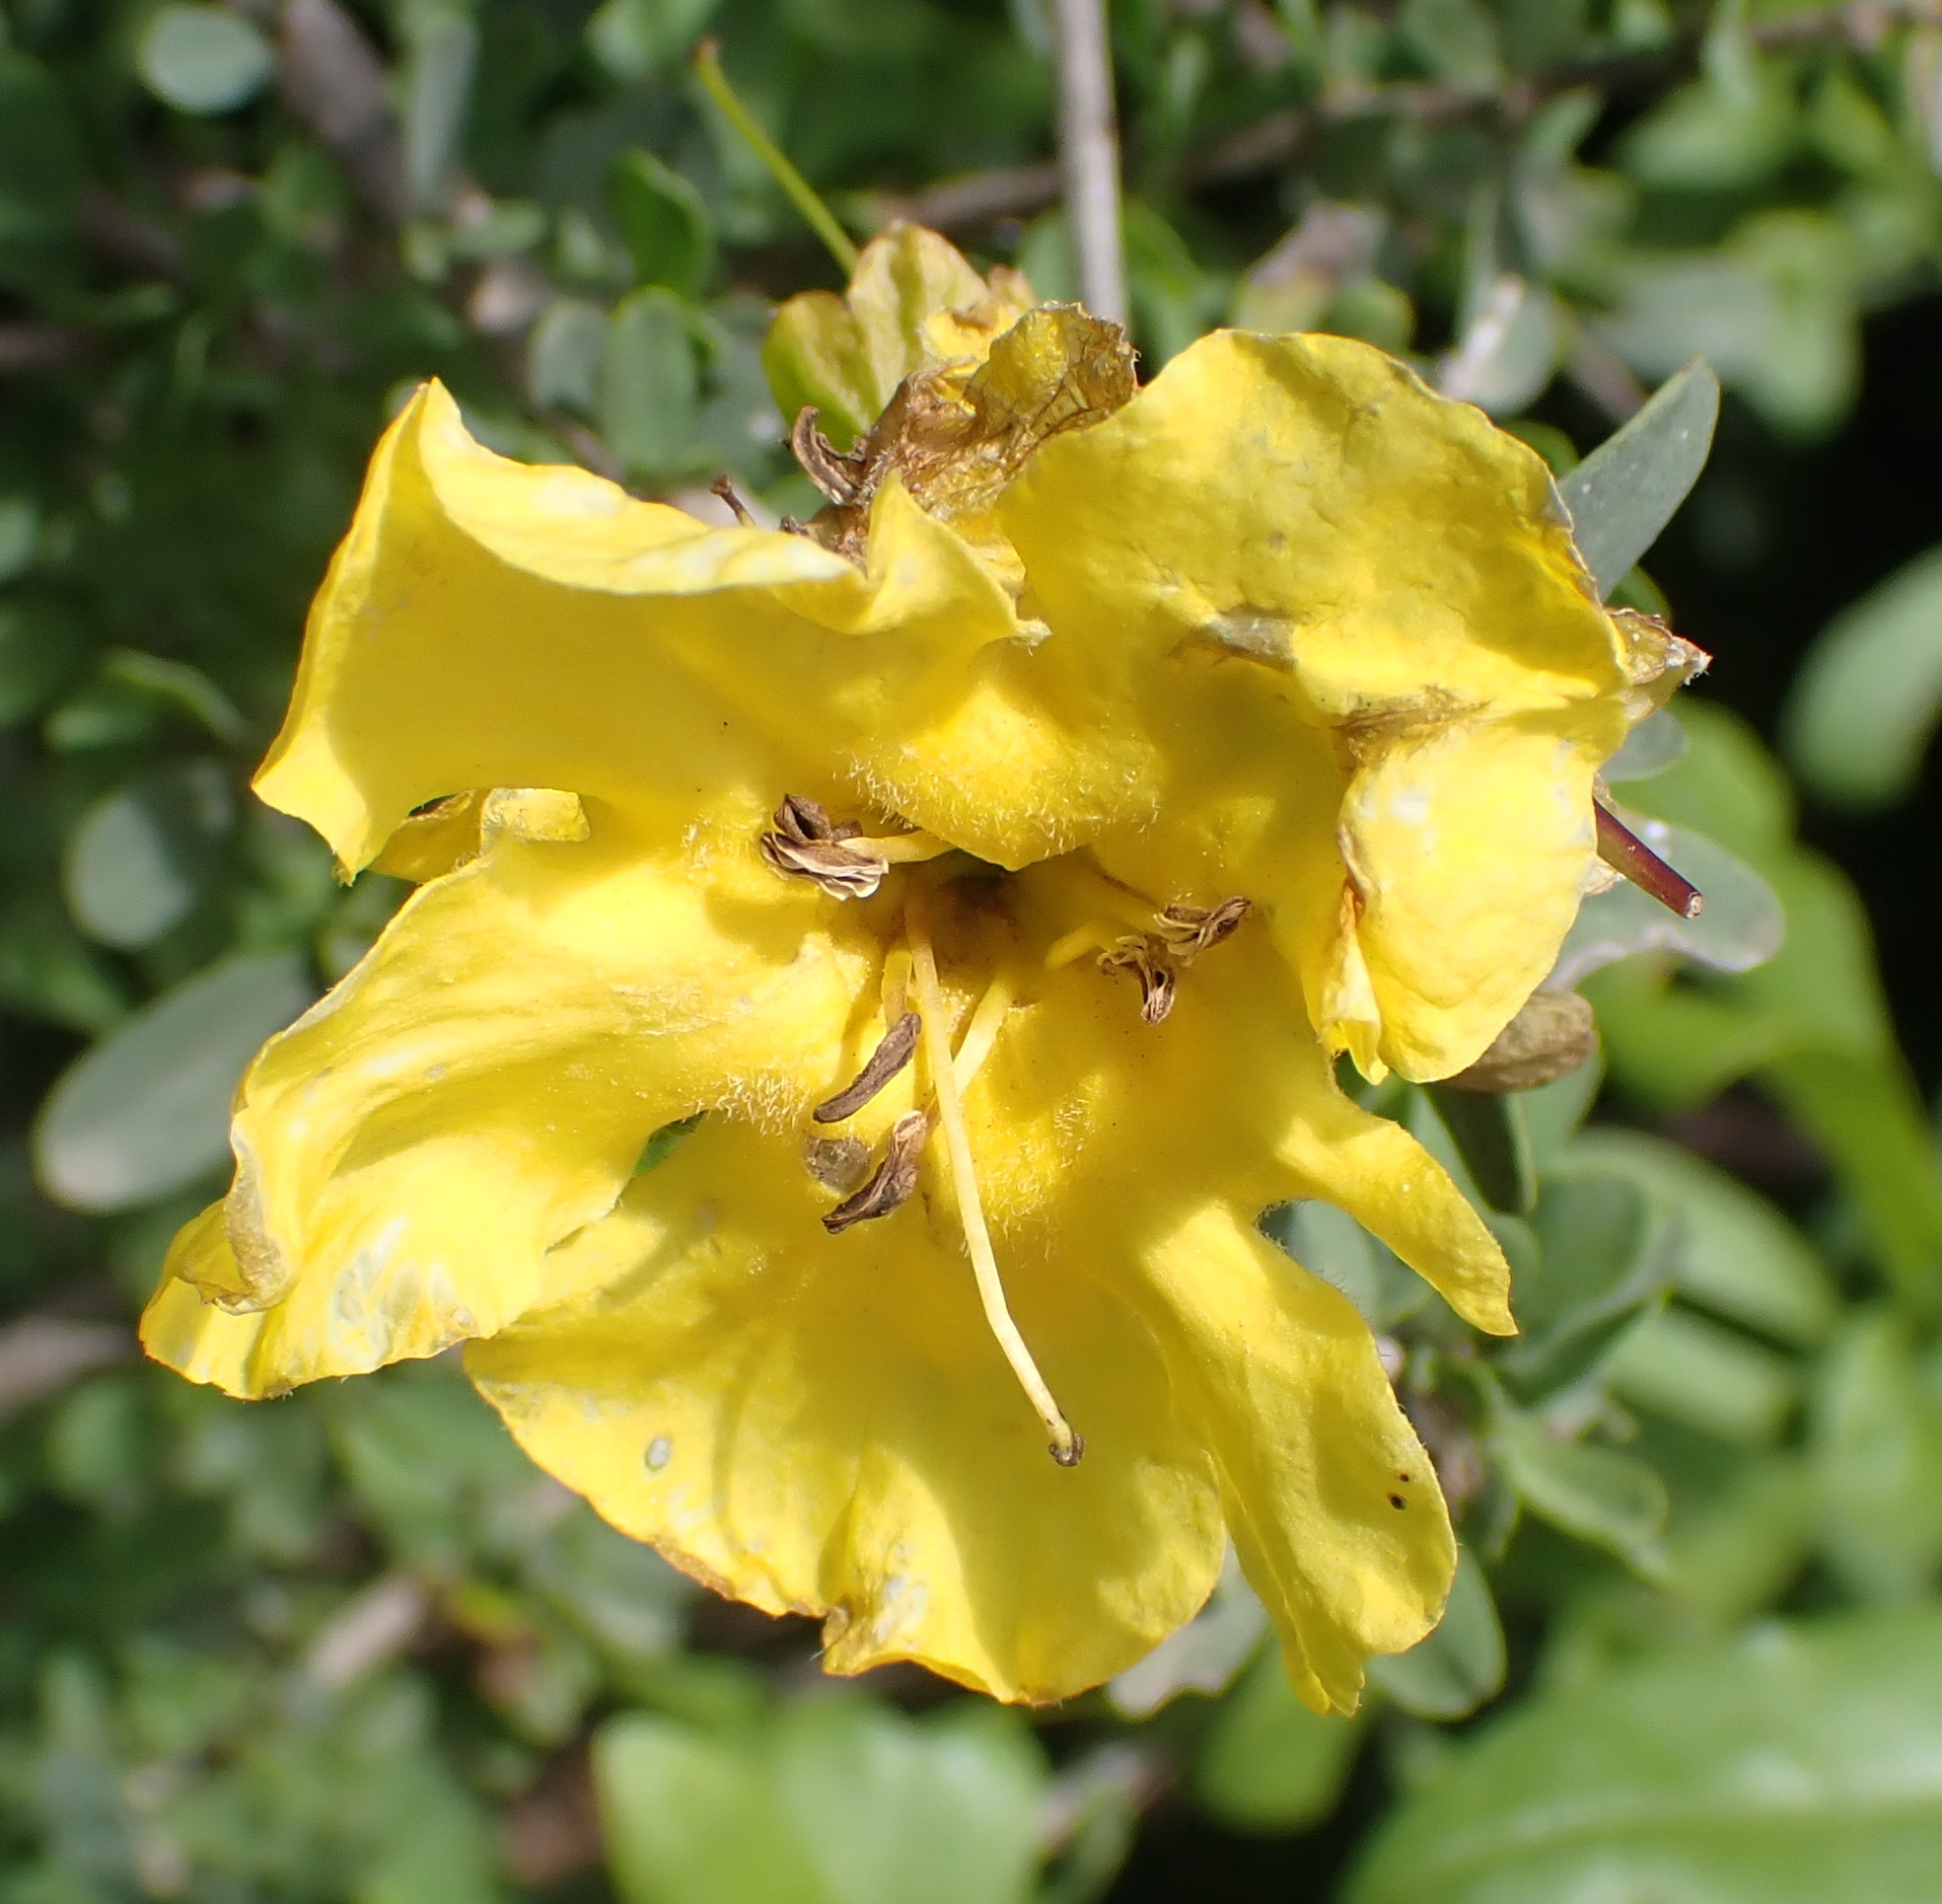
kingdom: Plantae
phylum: Tracheophyta
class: Magnoliopsida
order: Lamiales
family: Bignoniaceae
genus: Rhigozum
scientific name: Rhigozum obovatum
